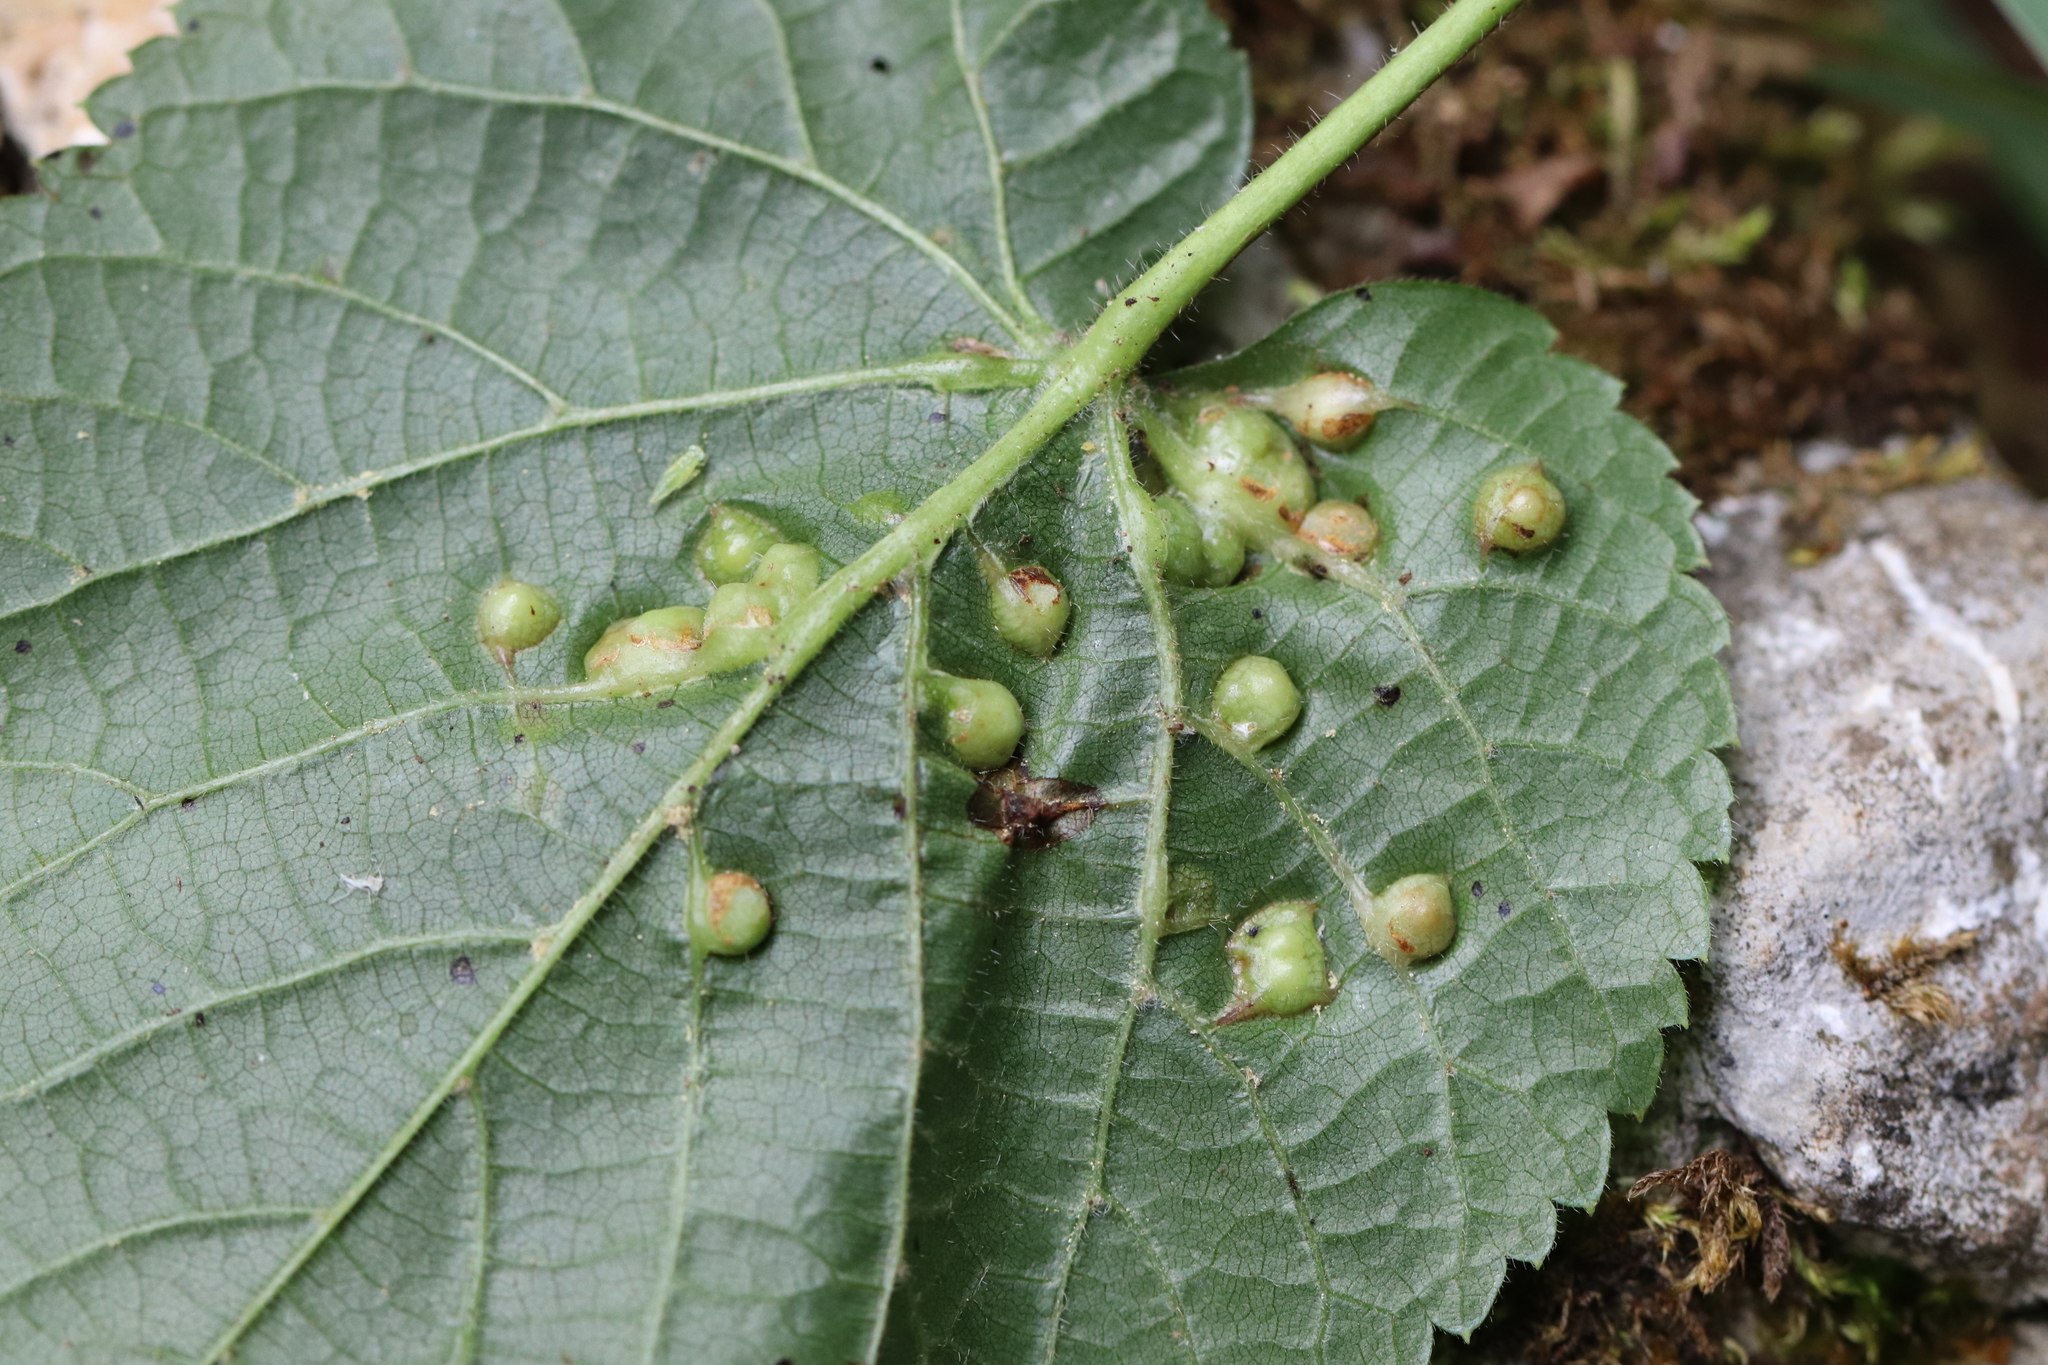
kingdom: Animalia
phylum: Arthropoda
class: Insecta
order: Diptera
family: Cecidomyiidae
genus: Didymomyia
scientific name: Didymomyia tiliacea
